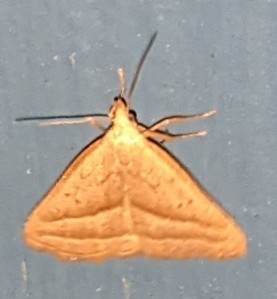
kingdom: Animalia
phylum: Arthropoda
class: Insecta
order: Lepidoptera
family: Erebidae
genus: Macrochilo
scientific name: Macrochilo absorptalis
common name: Slant-lined owlet
